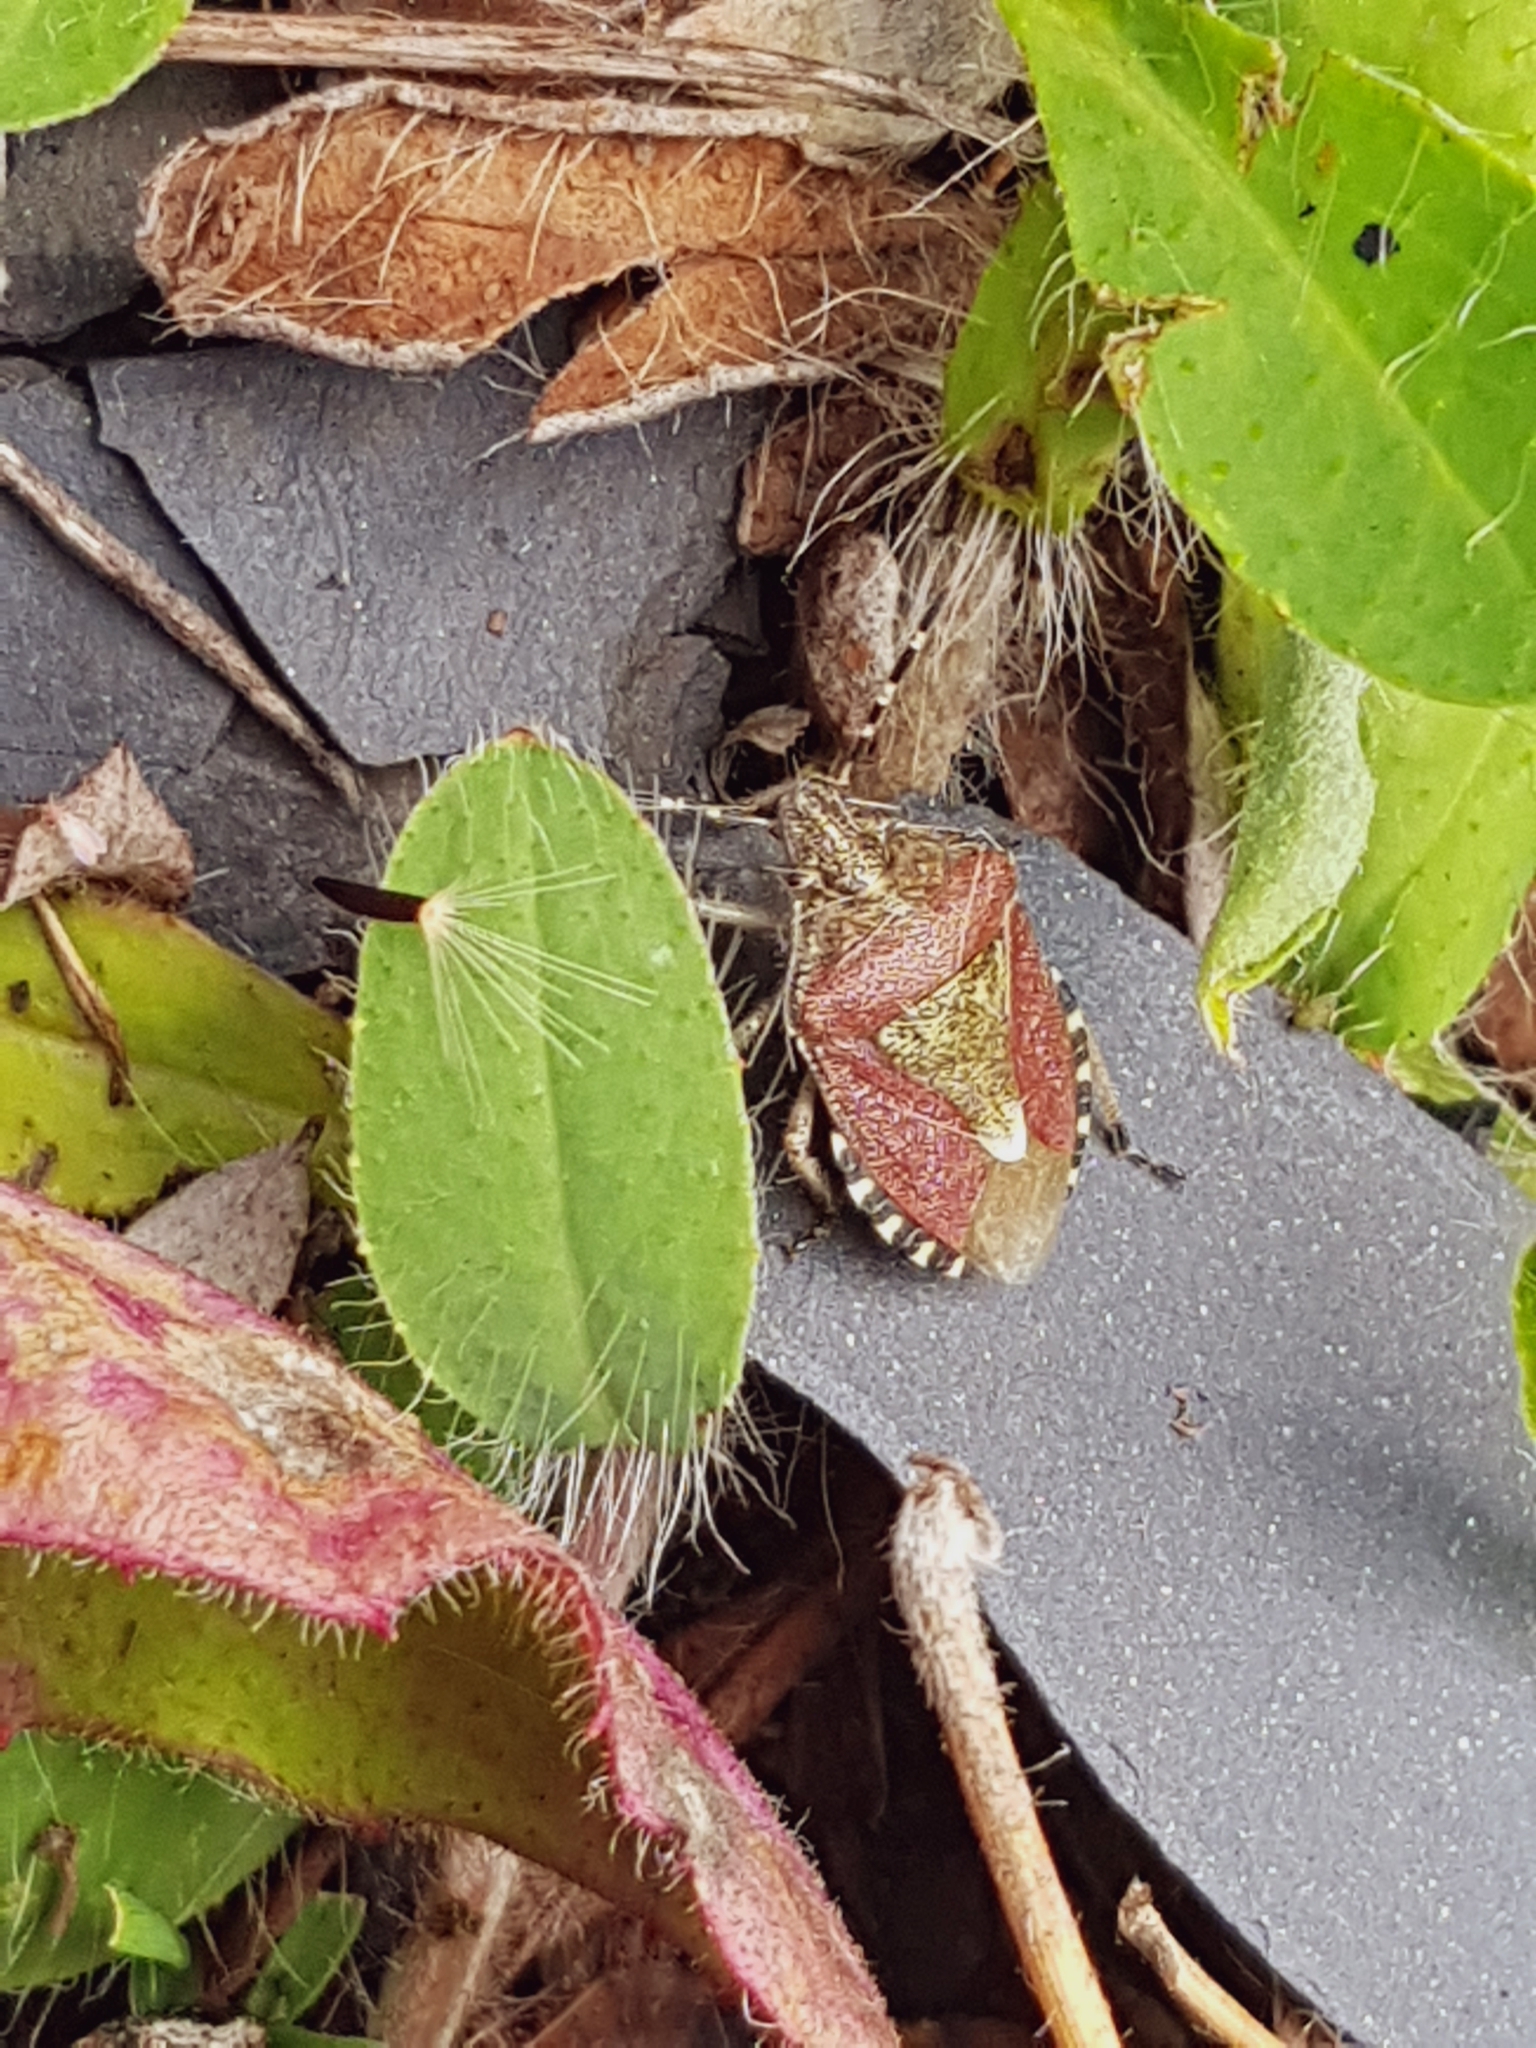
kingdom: Animalia
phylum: Arthropoda
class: Insecta
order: Hemiptera
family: Pentatomidae
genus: Dolycoris
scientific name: Dolycoris baccarum
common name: Sloe bug
